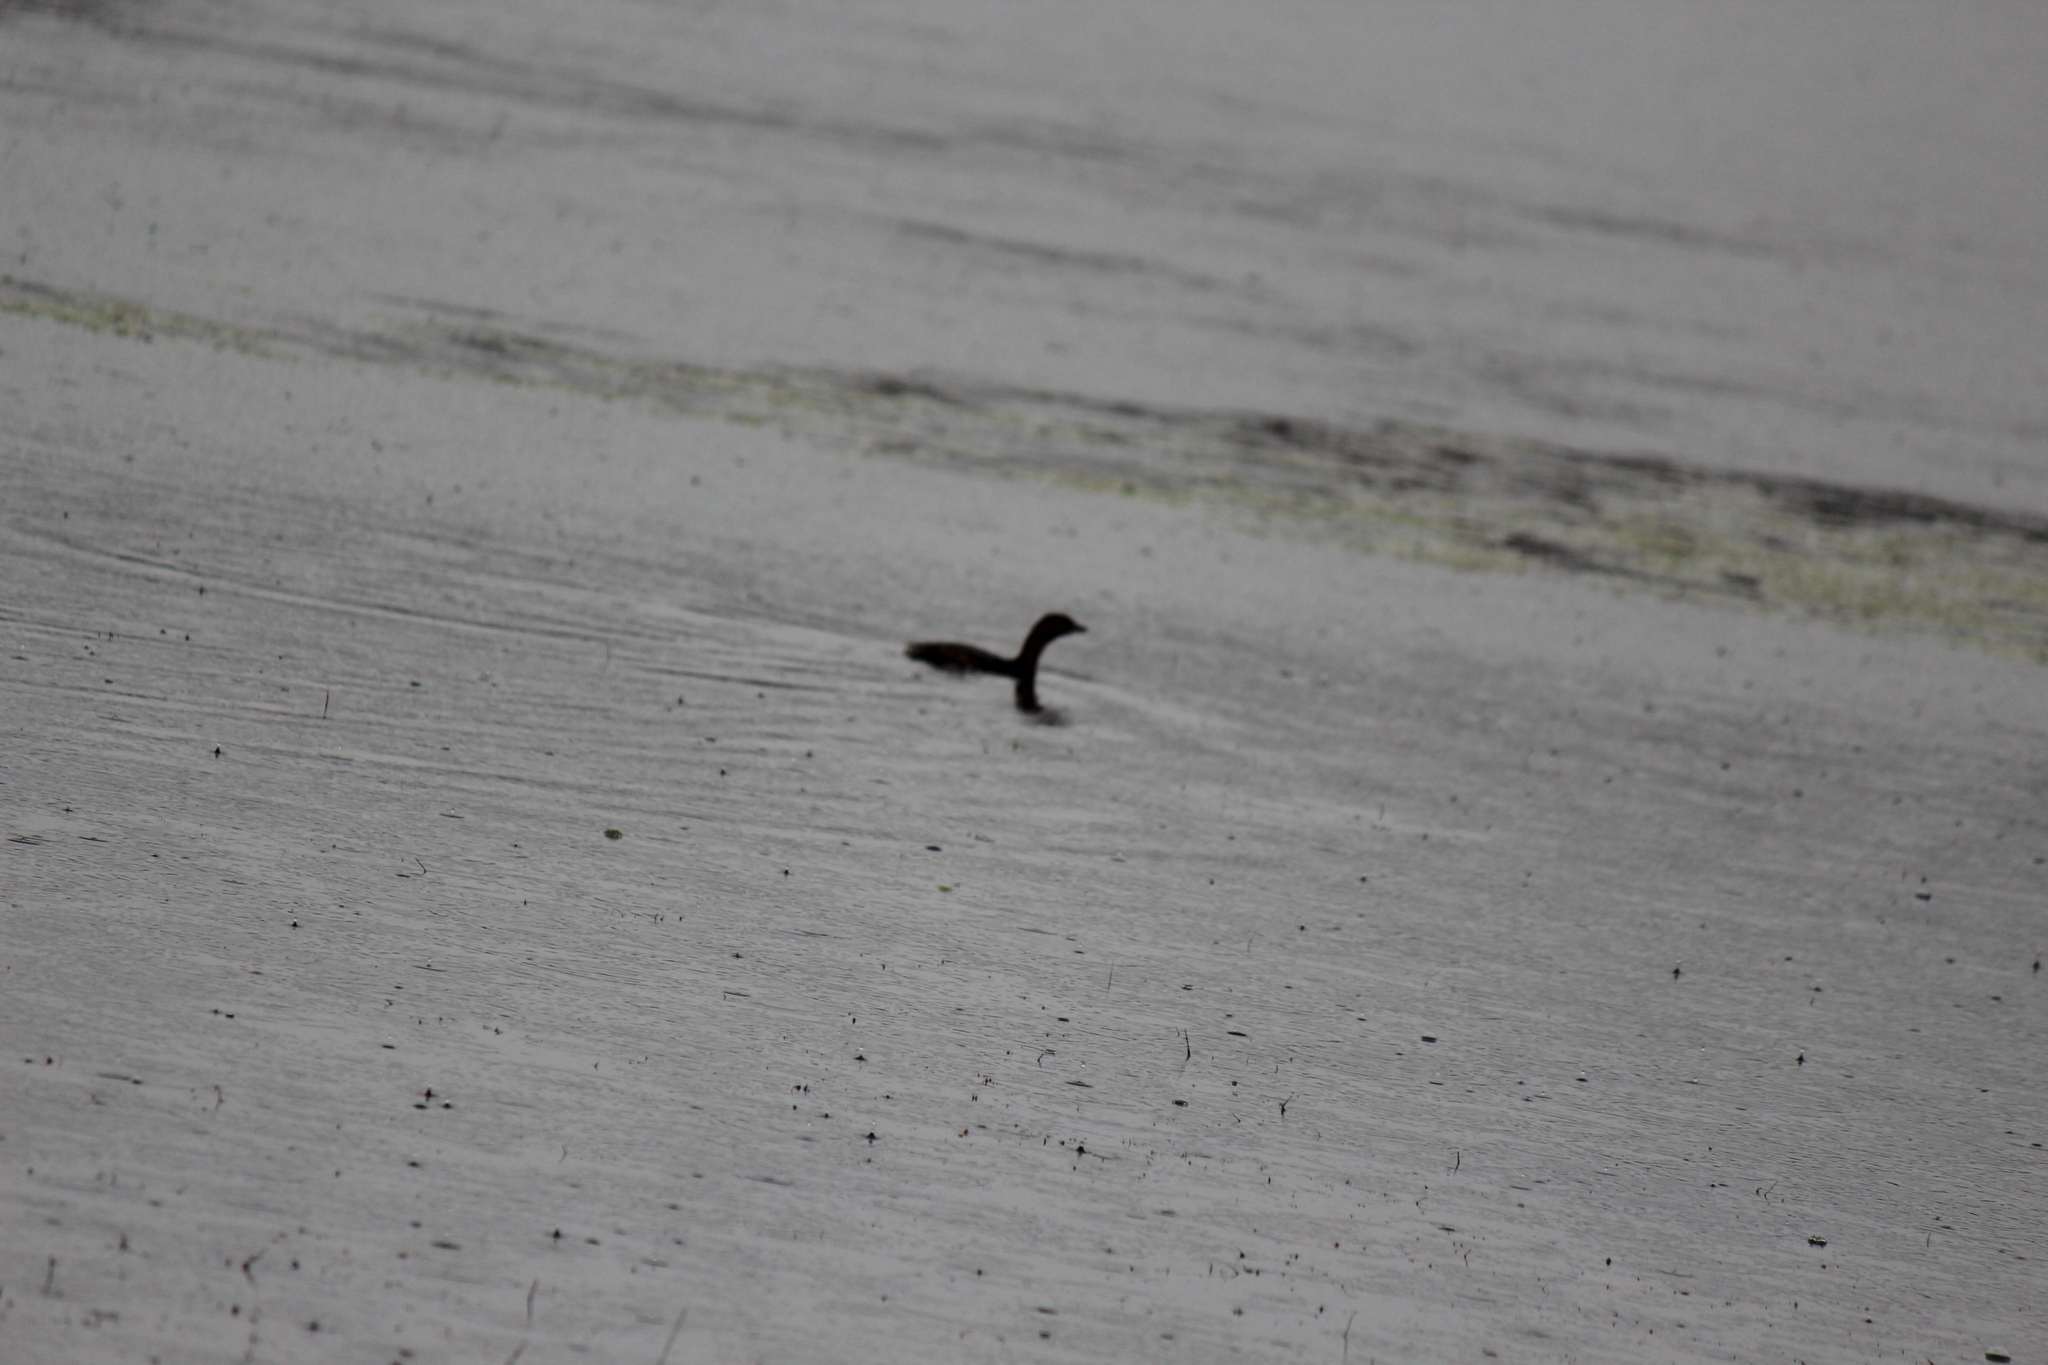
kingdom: Animalia
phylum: Chordata
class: Aves
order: Podicipediformes
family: Podicipedidae
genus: Podilymbus
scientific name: Podilymbus podiceps
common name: Pied-billed grebe
